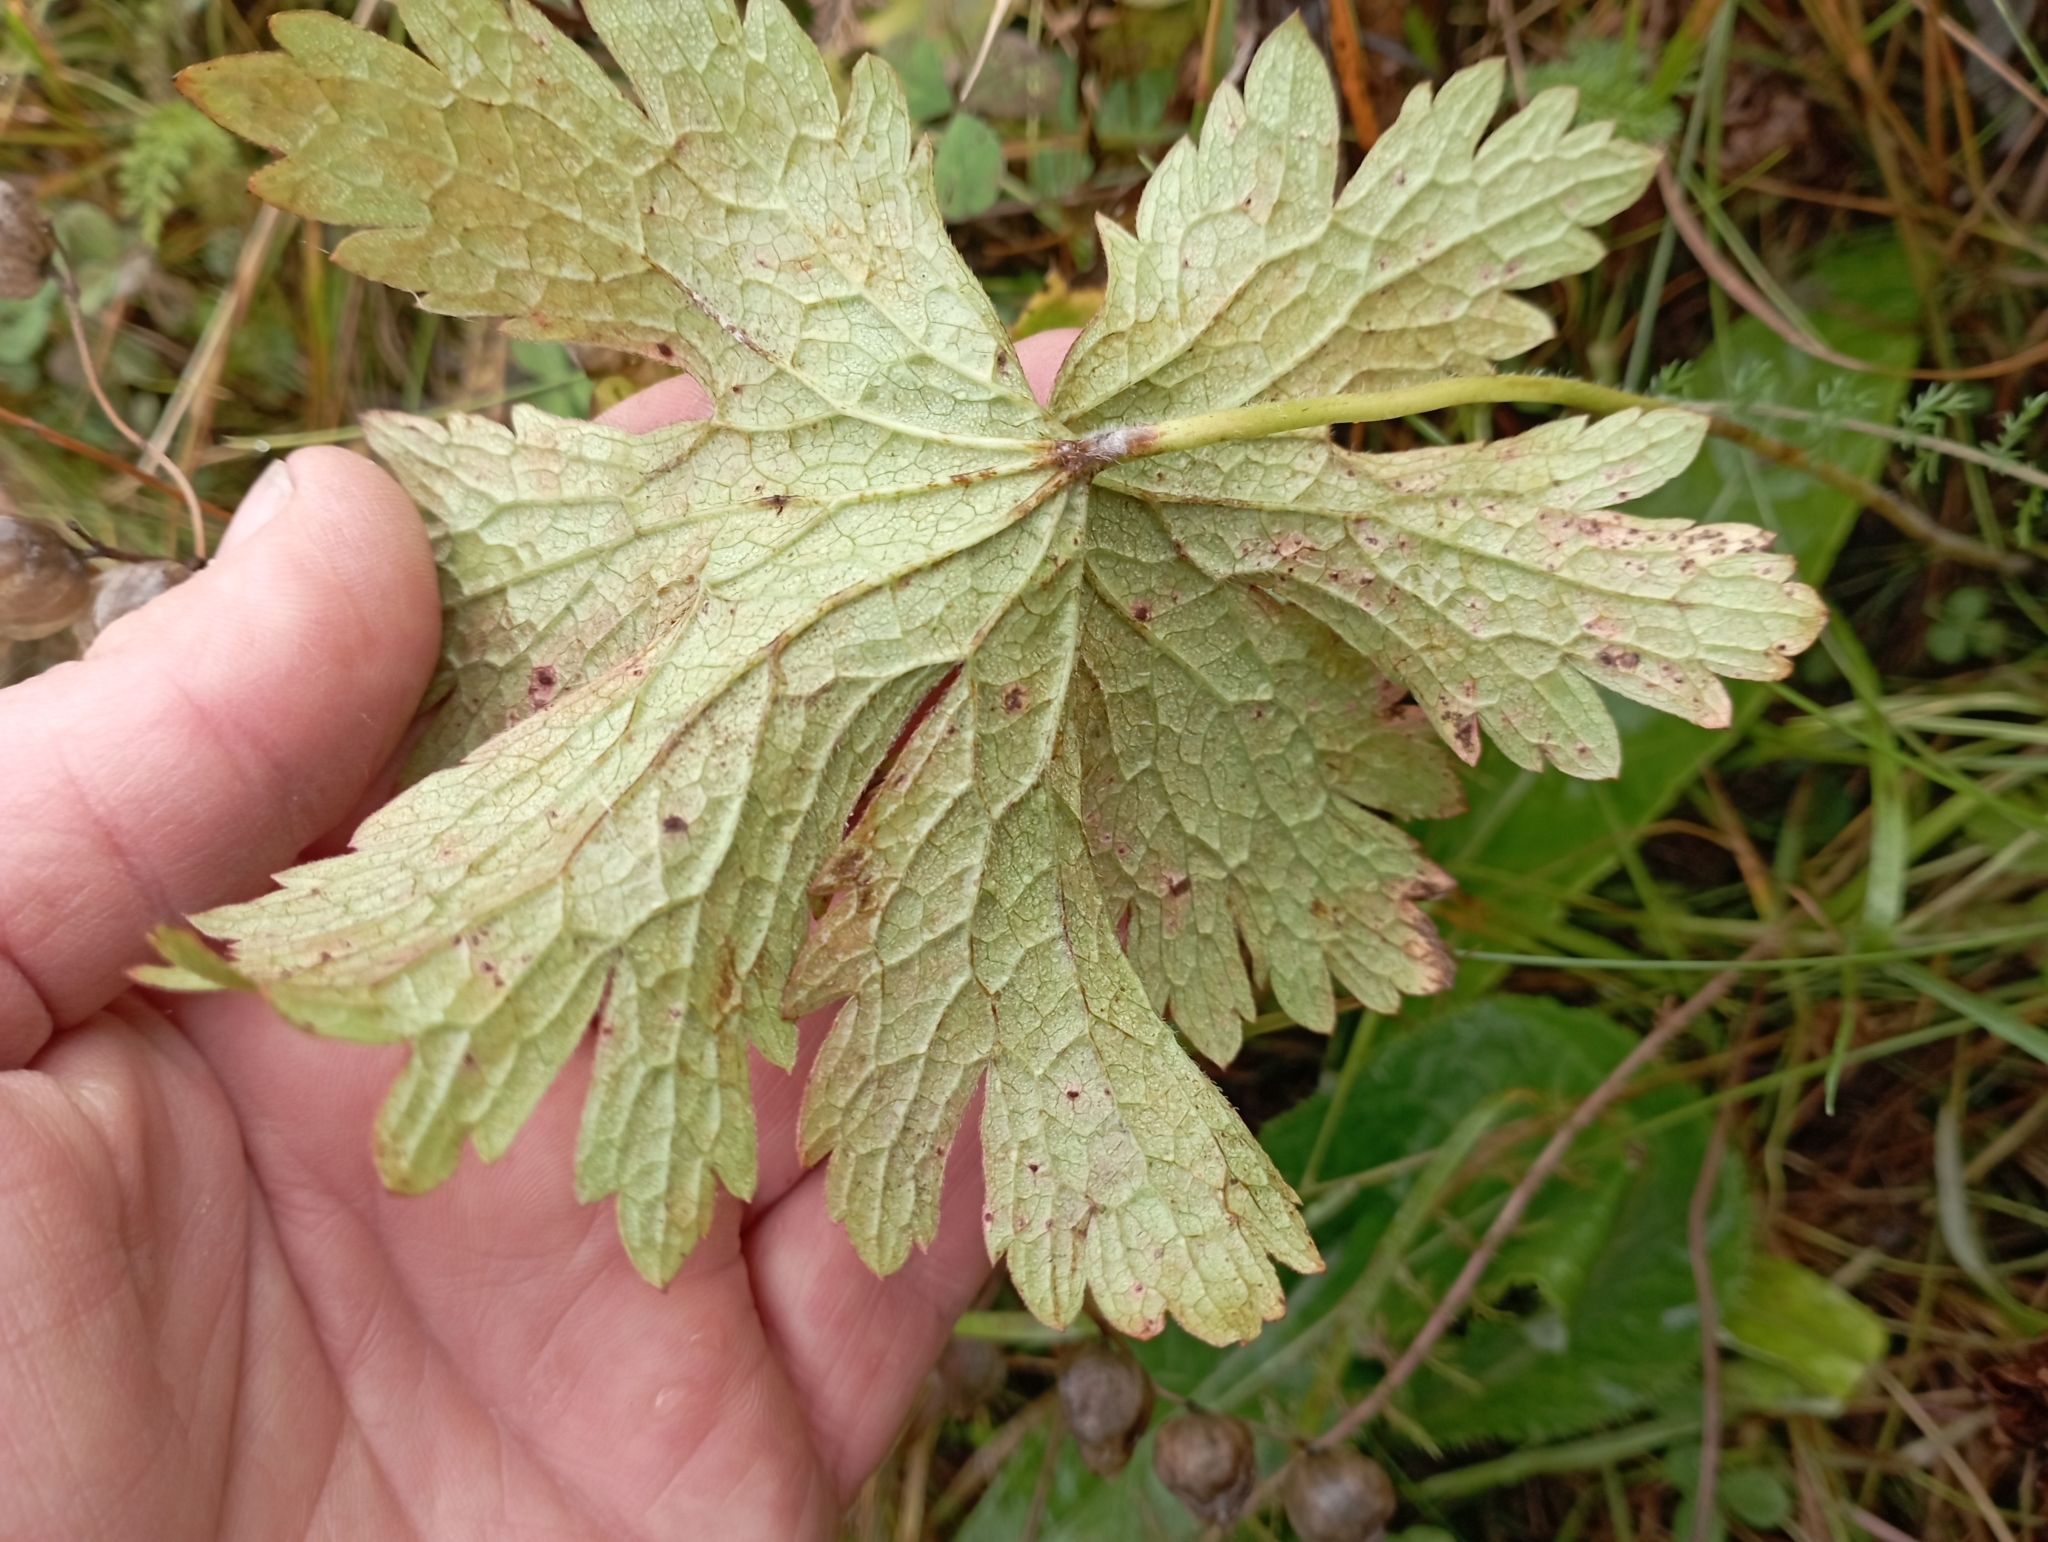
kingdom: Plantae
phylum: Tracheophyta
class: Magnoliopsida
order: Geraniales
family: Geraniaceae
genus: Geranium
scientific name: Geranium sylvaticum
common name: Wood crane's-bill
